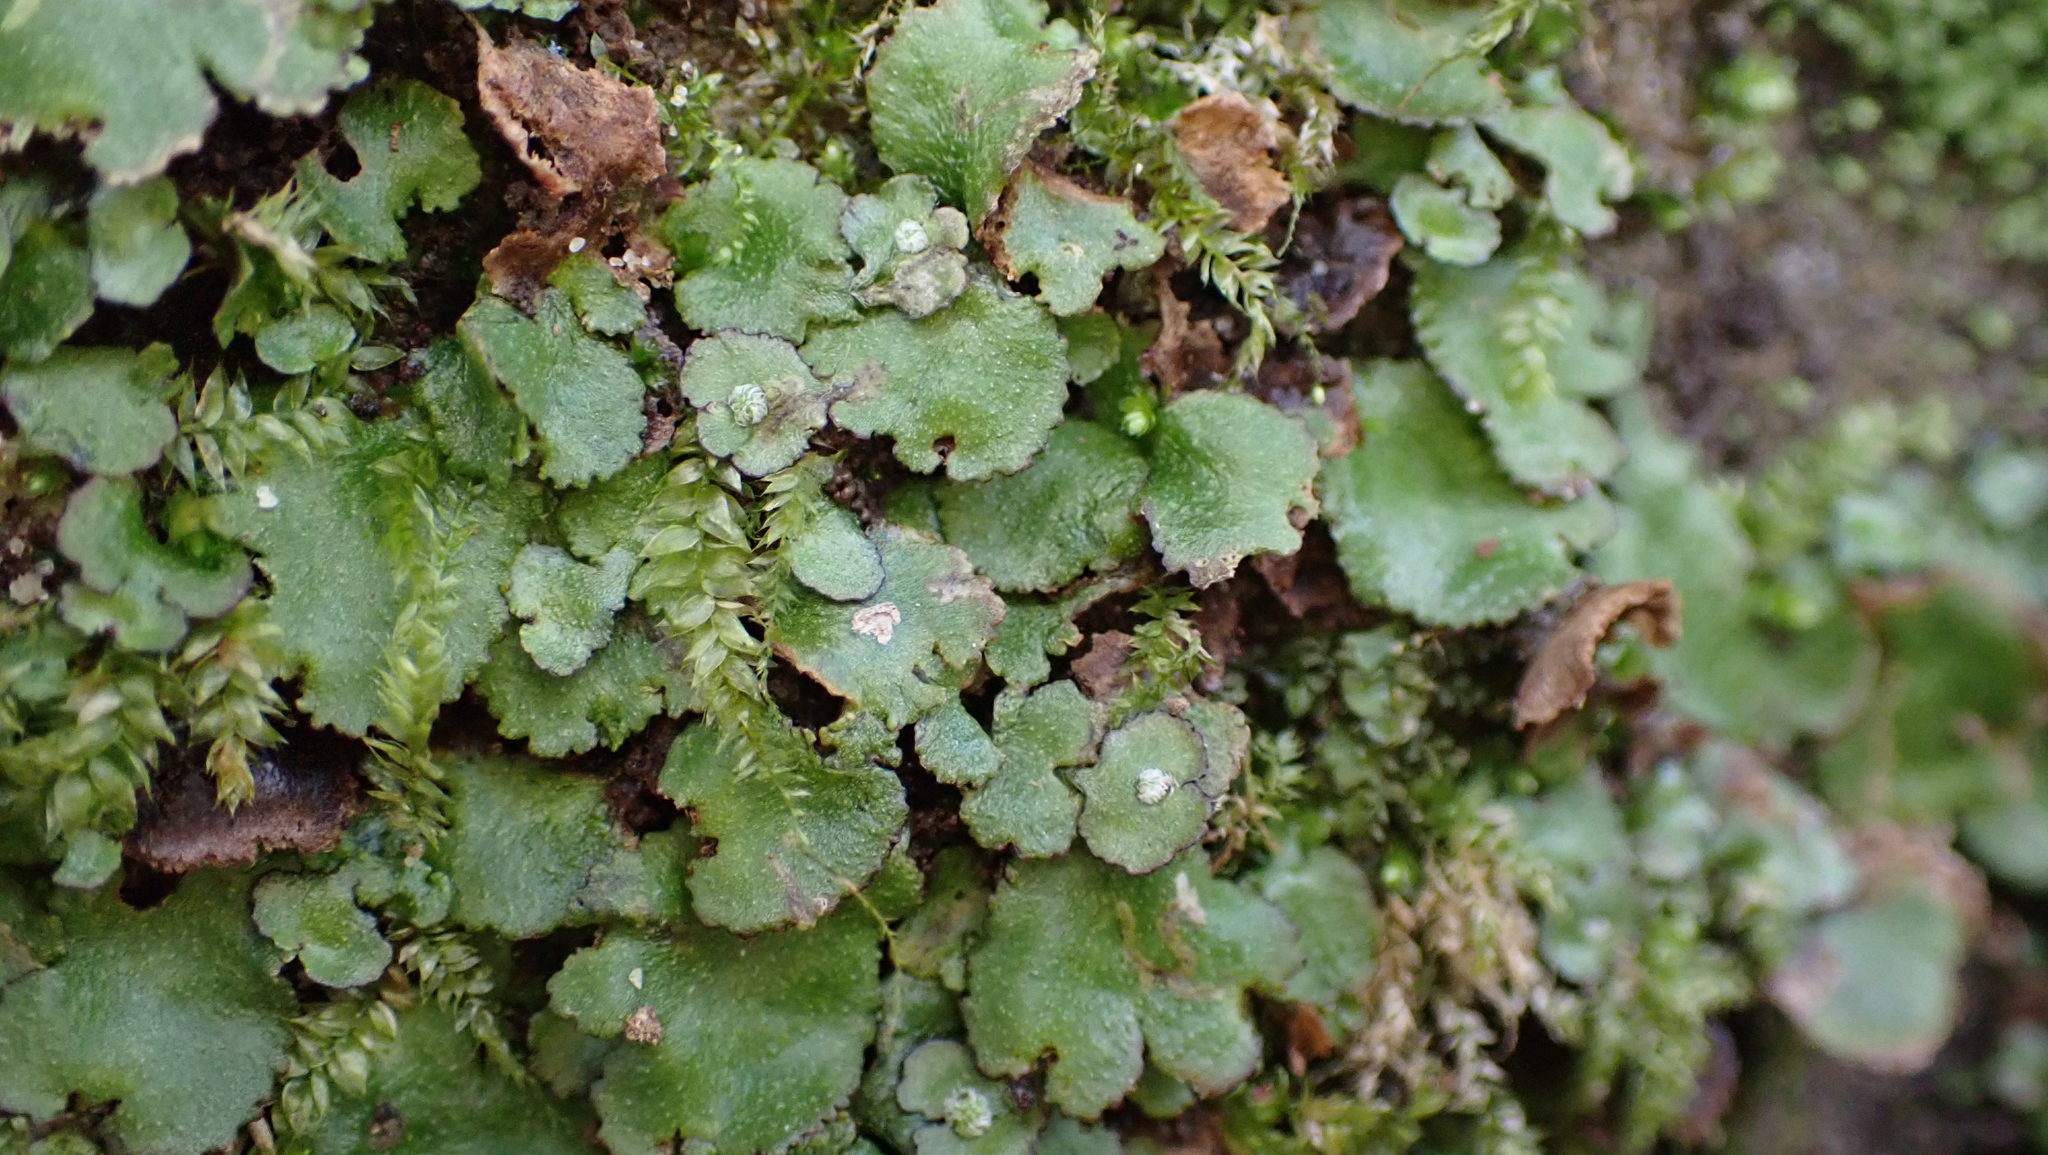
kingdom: Plantae
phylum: Marchantiophyta
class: Marchantiopsida
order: Marchantiales
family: Aytoniaceae
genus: Reboulia
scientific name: Reboulia hemisphaerica
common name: Purple-margined liverwort
